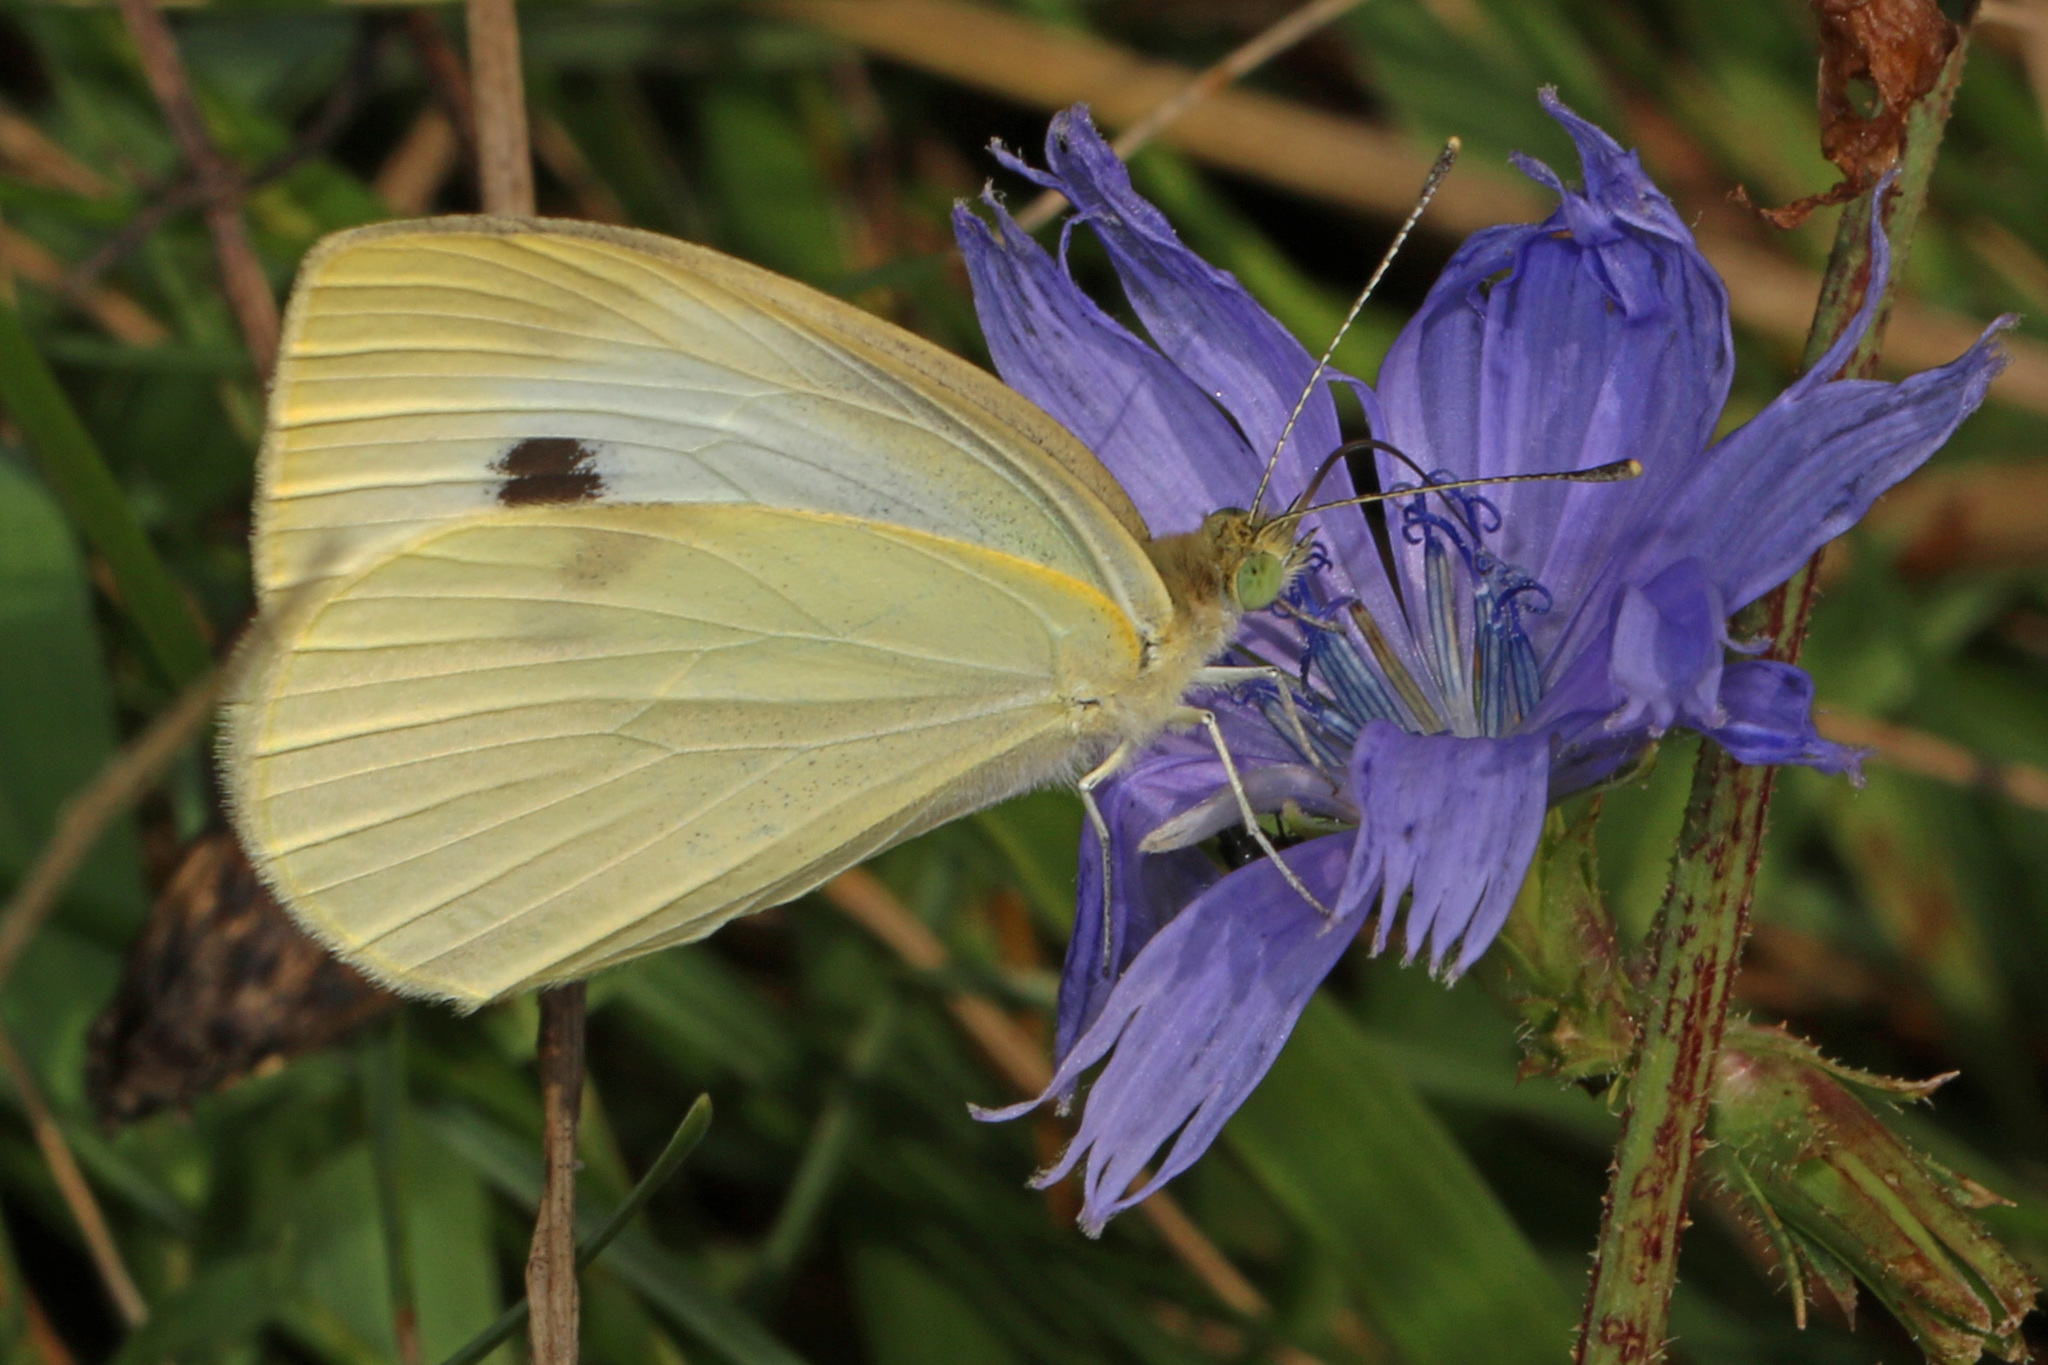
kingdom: Animalia
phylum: Arthropoda
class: Insecta
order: Lepidoptera
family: Pieridae
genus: Pieris
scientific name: Pieris rapae
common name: Small white
